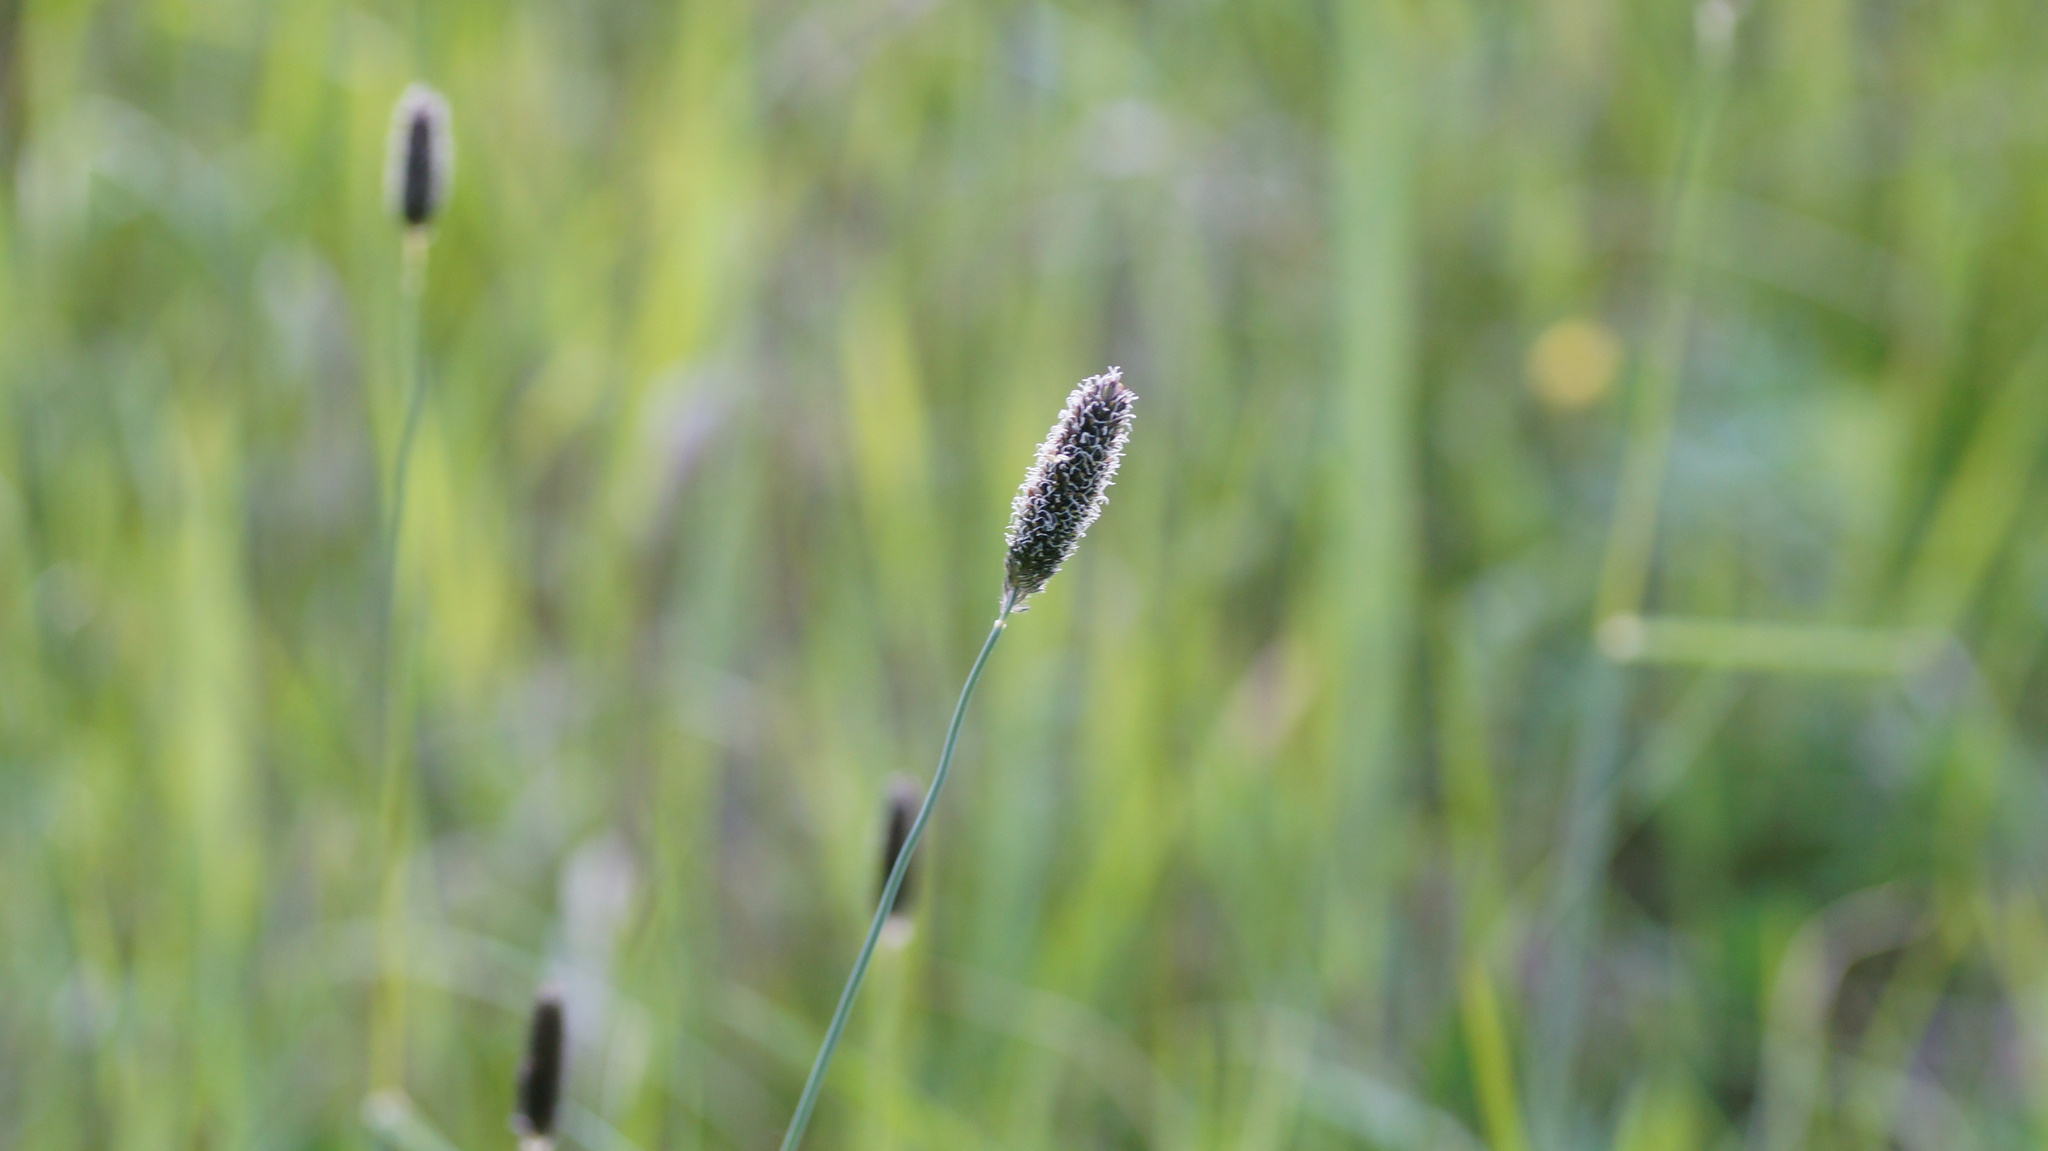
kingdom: Plantae
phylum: Tracheophyta
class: Liliopsida
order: Poales
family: Poaceae
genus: Alopecurus
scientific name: Alopecurus arundinaceus
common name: Creeping meadow foxtail
